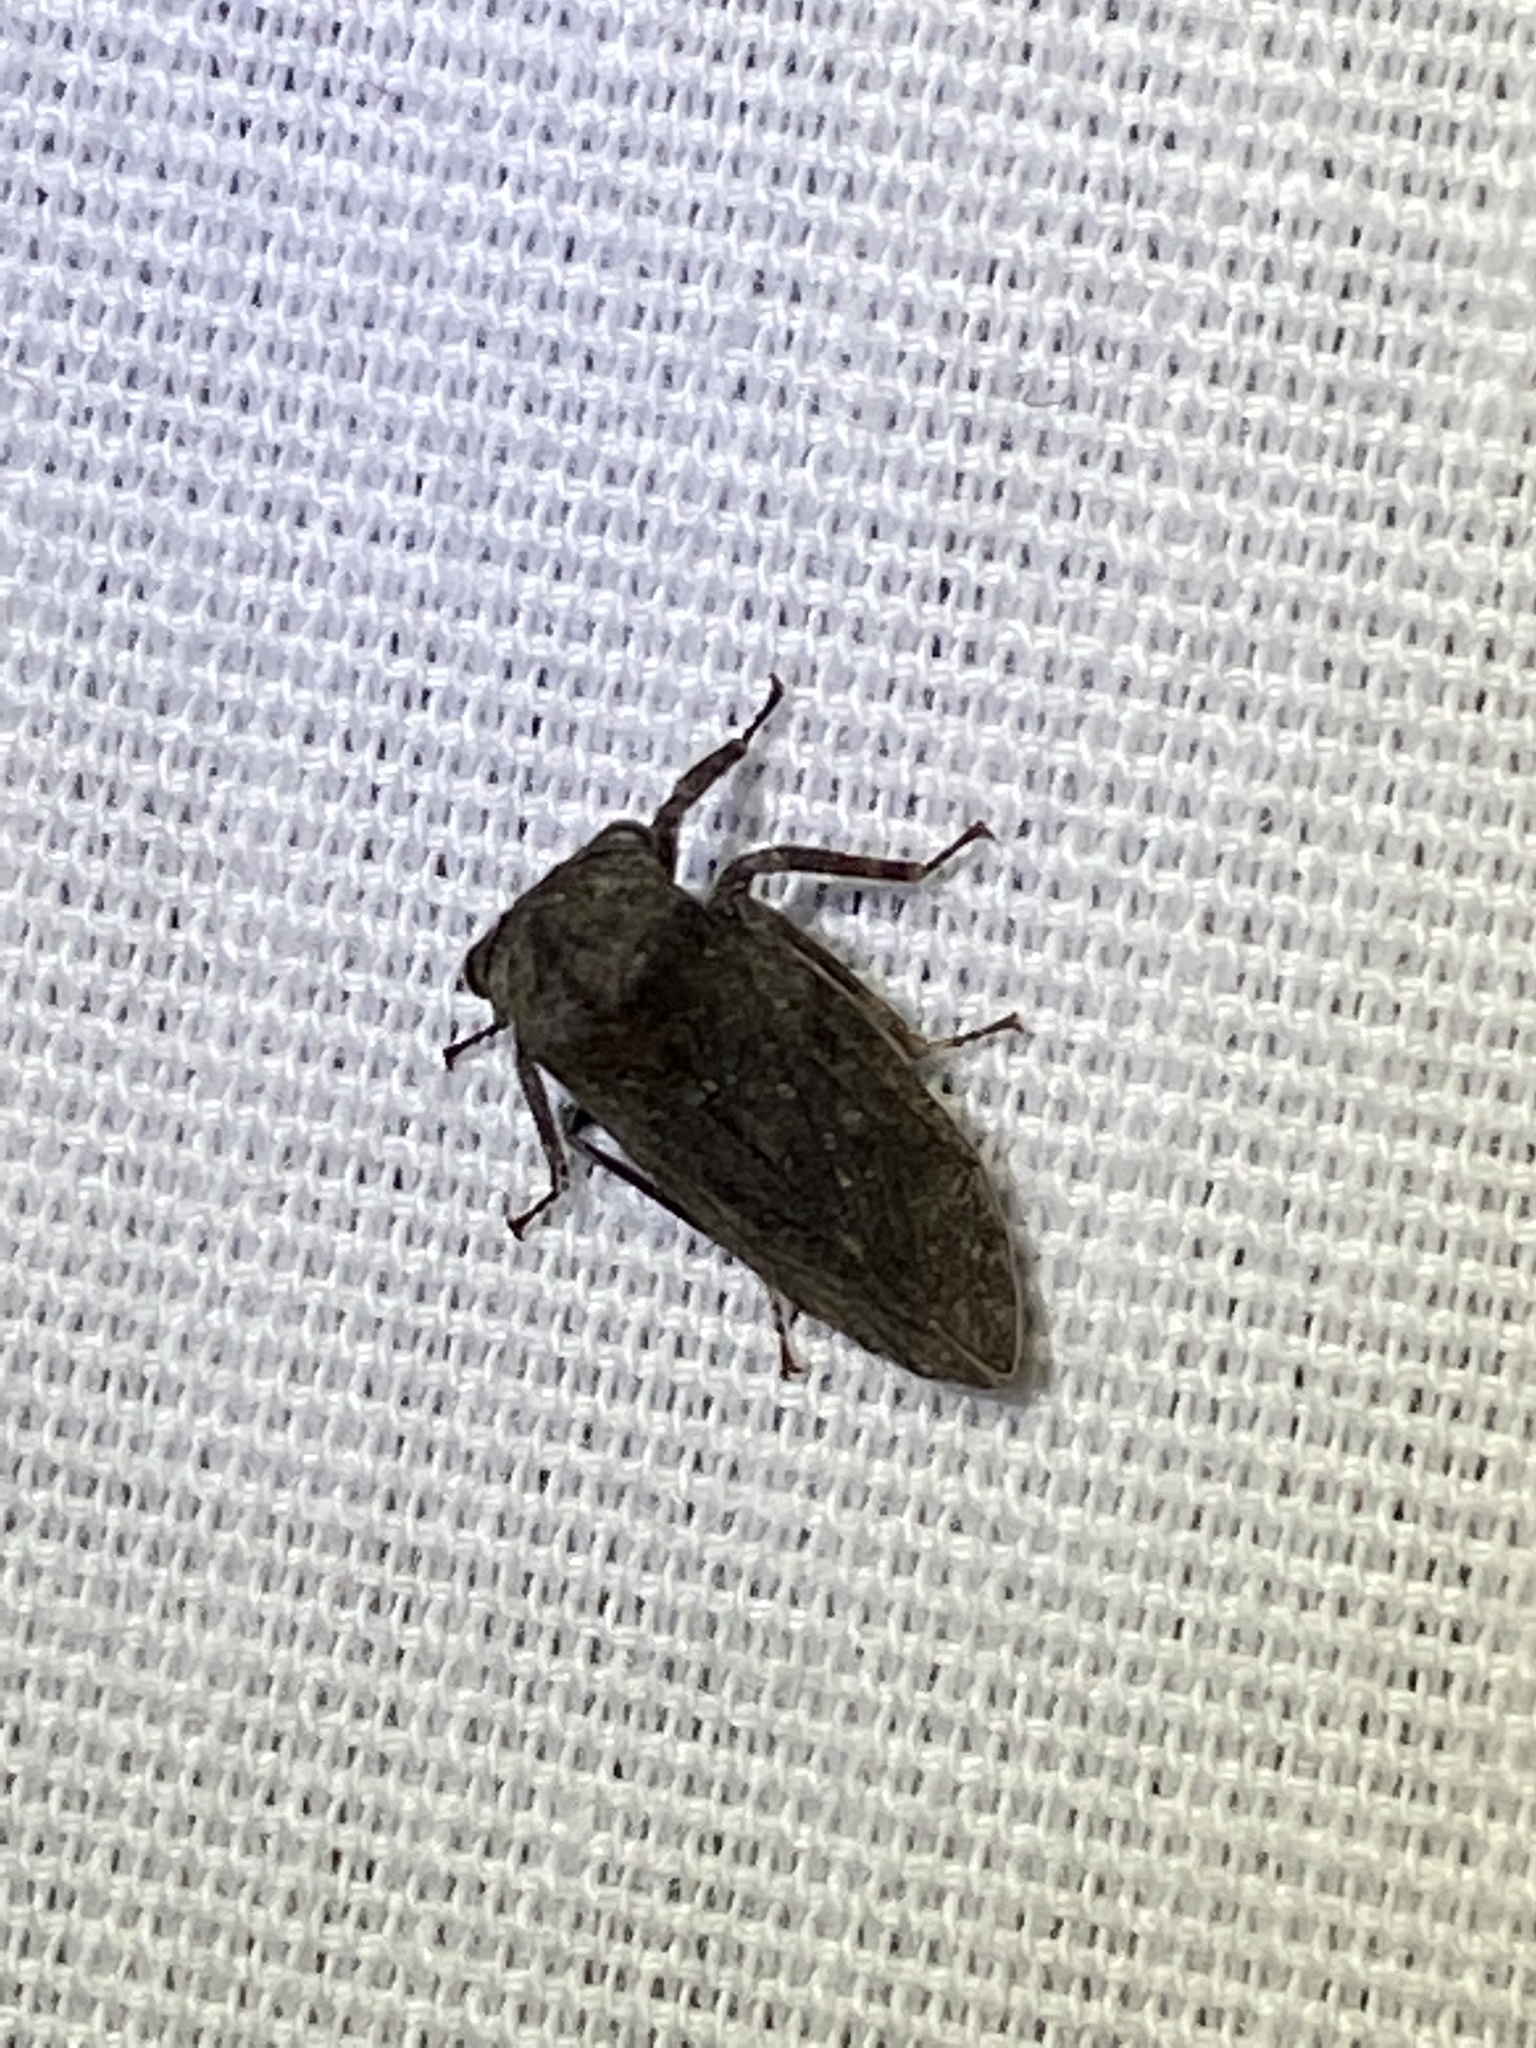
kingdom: Animalia
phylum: Arthropoda
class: Insecta
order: Hemiptera
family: Membracidae
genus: Microcentrus
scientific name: Microcentrus caryae
